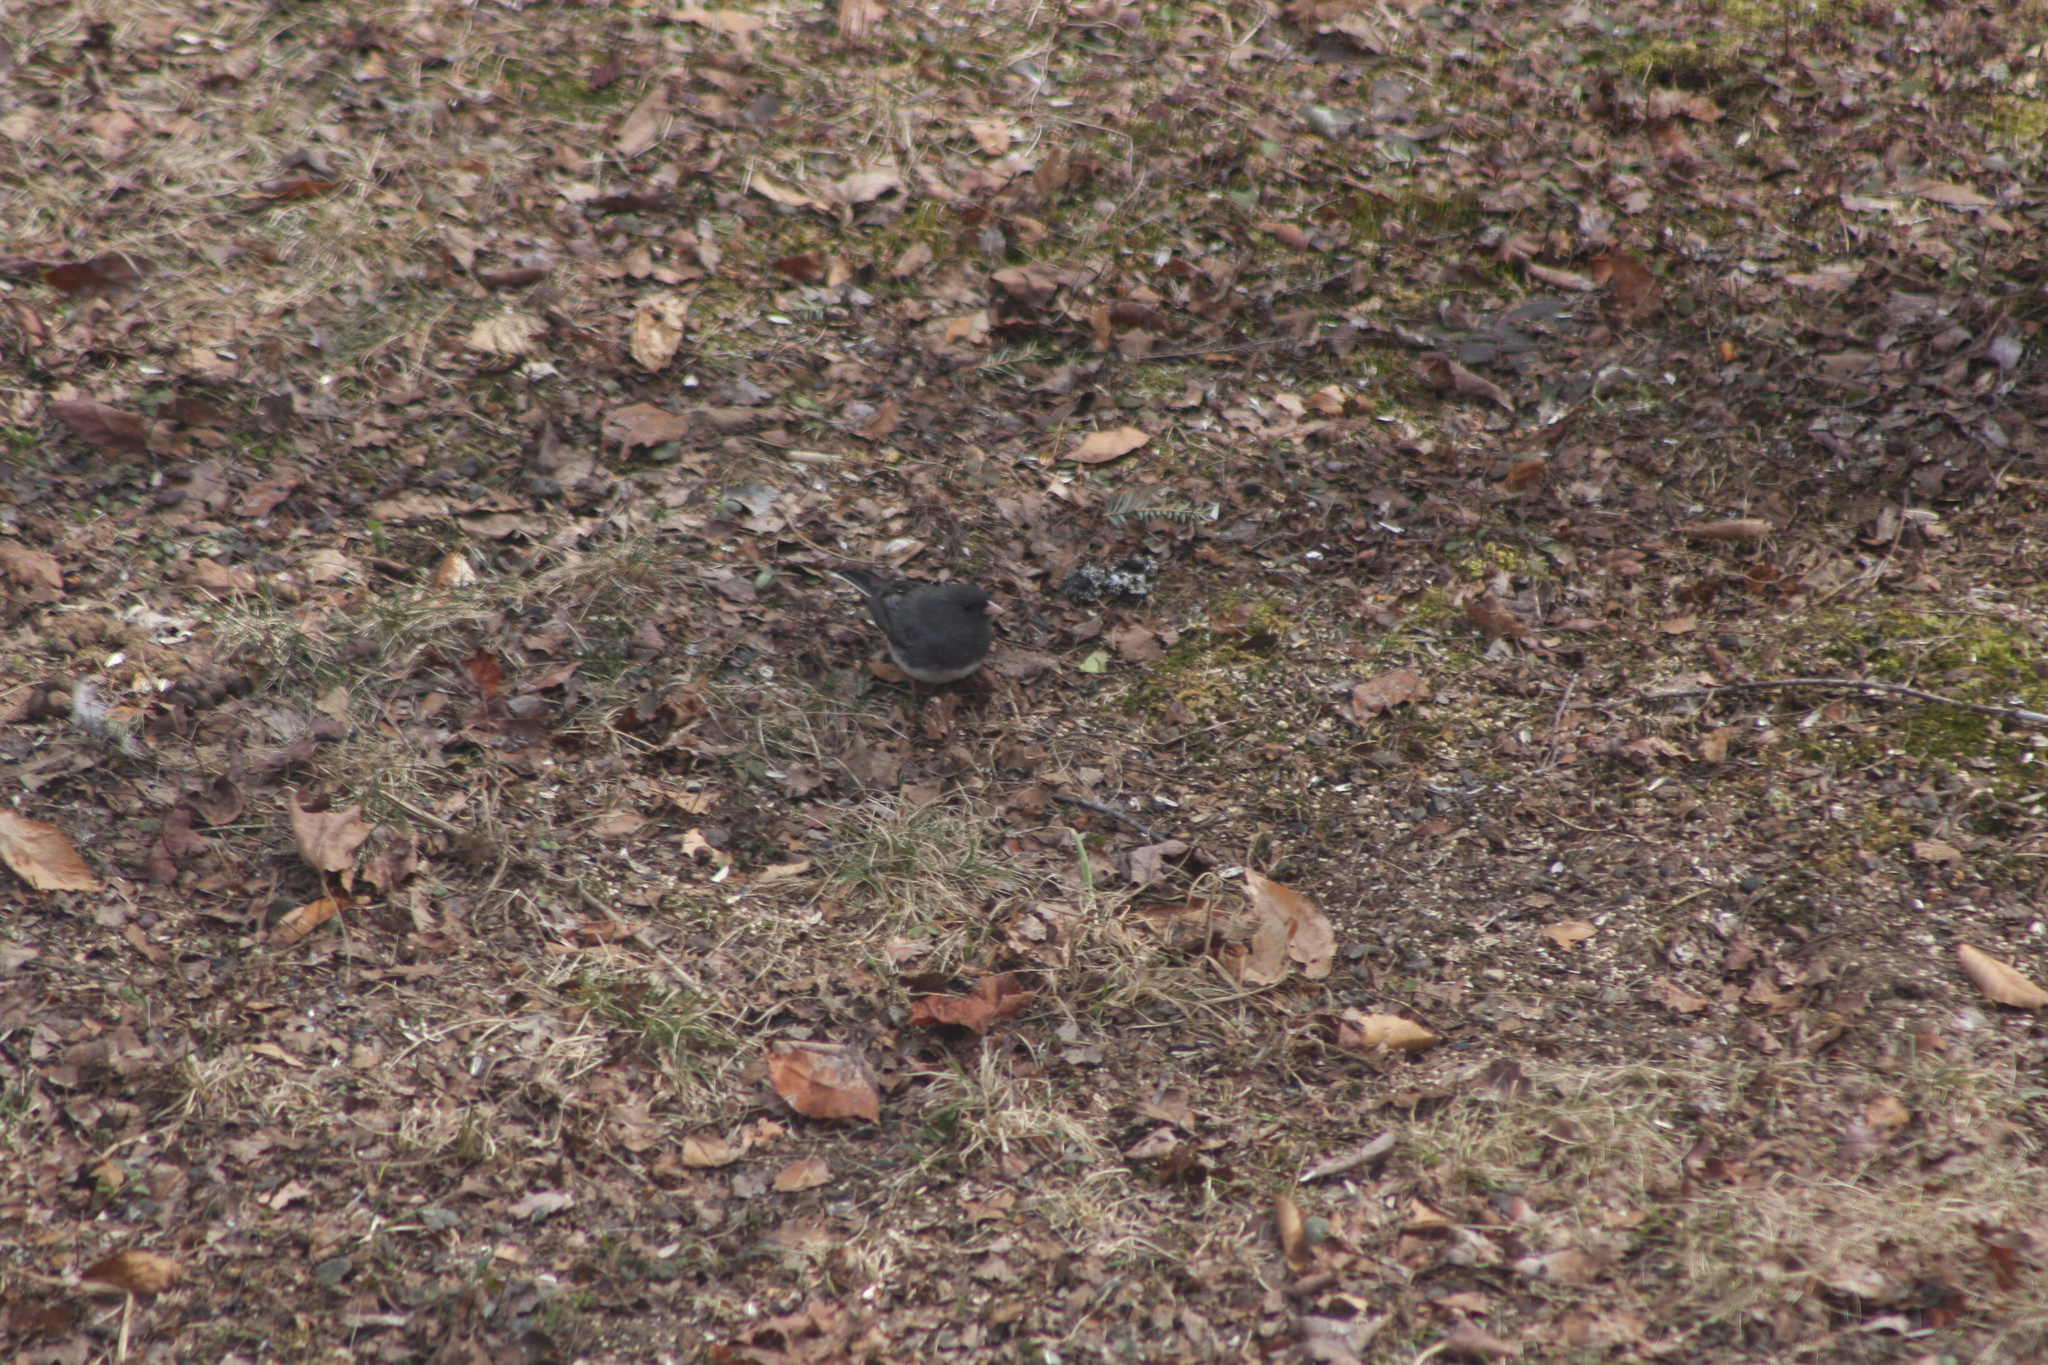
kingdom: Animalia
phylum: Chordata
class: Aves
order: Passeriformes
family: Passerellidae
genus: Junco
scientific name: Junco hyemalis
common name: Dark-eyed junco
